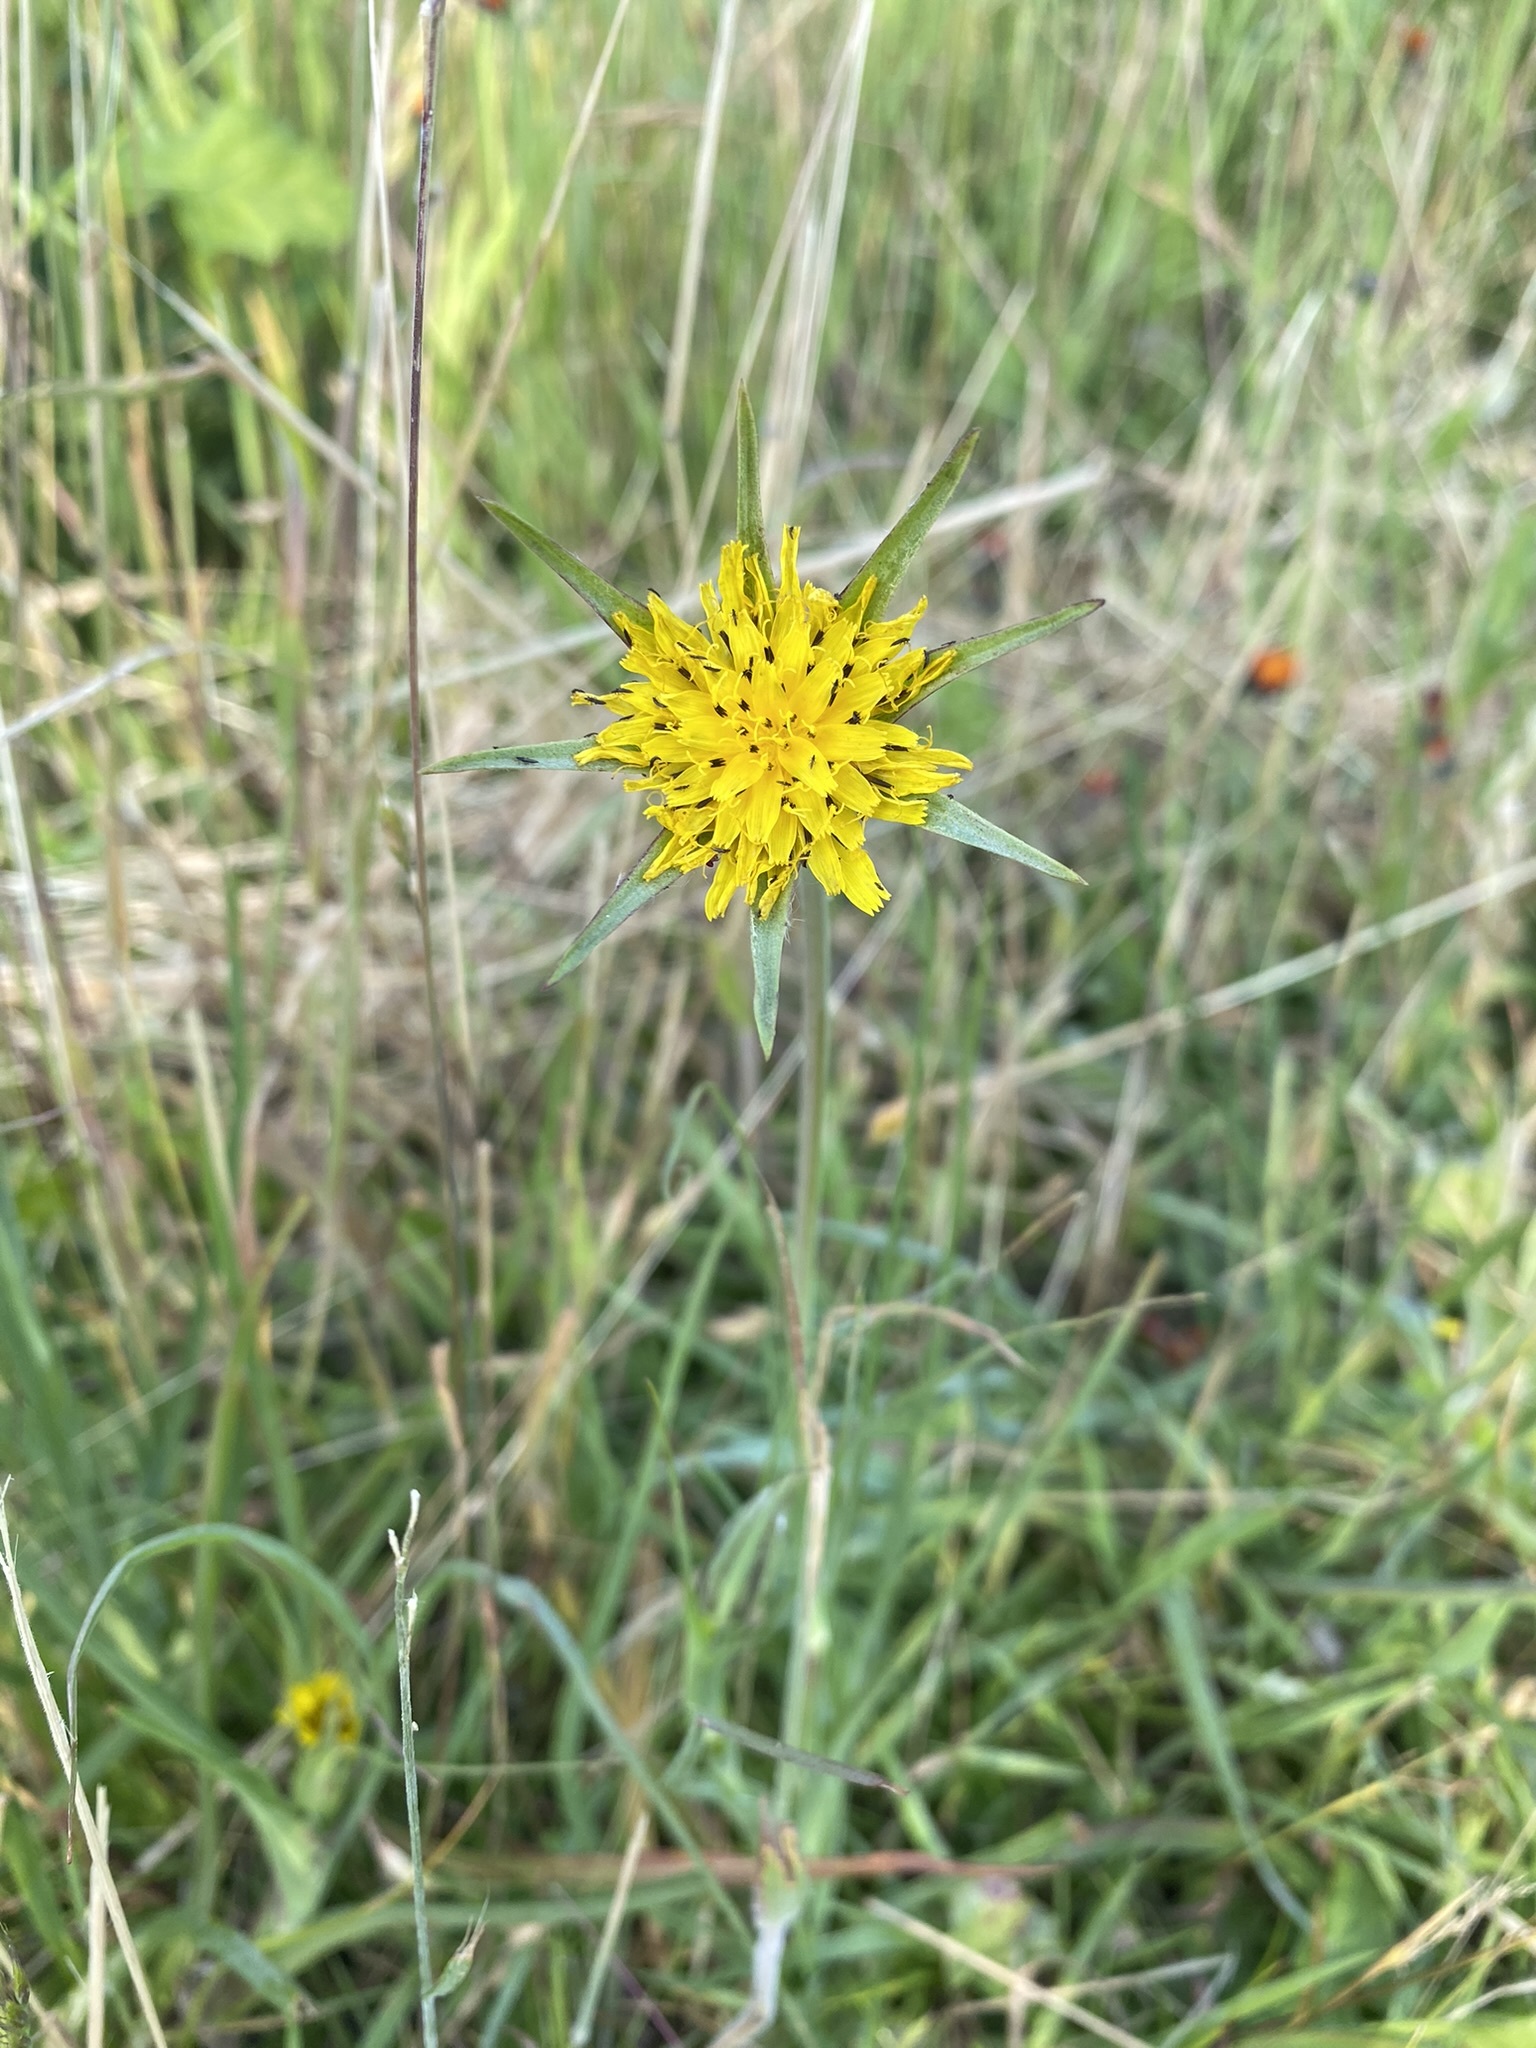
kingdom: Plantae
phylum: Tracheophyta
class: Magnoliopsida
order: Asterales
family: Asteraceae
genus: Tragopogon
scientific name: Tragopogon pratensis
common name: Goat's-beard
